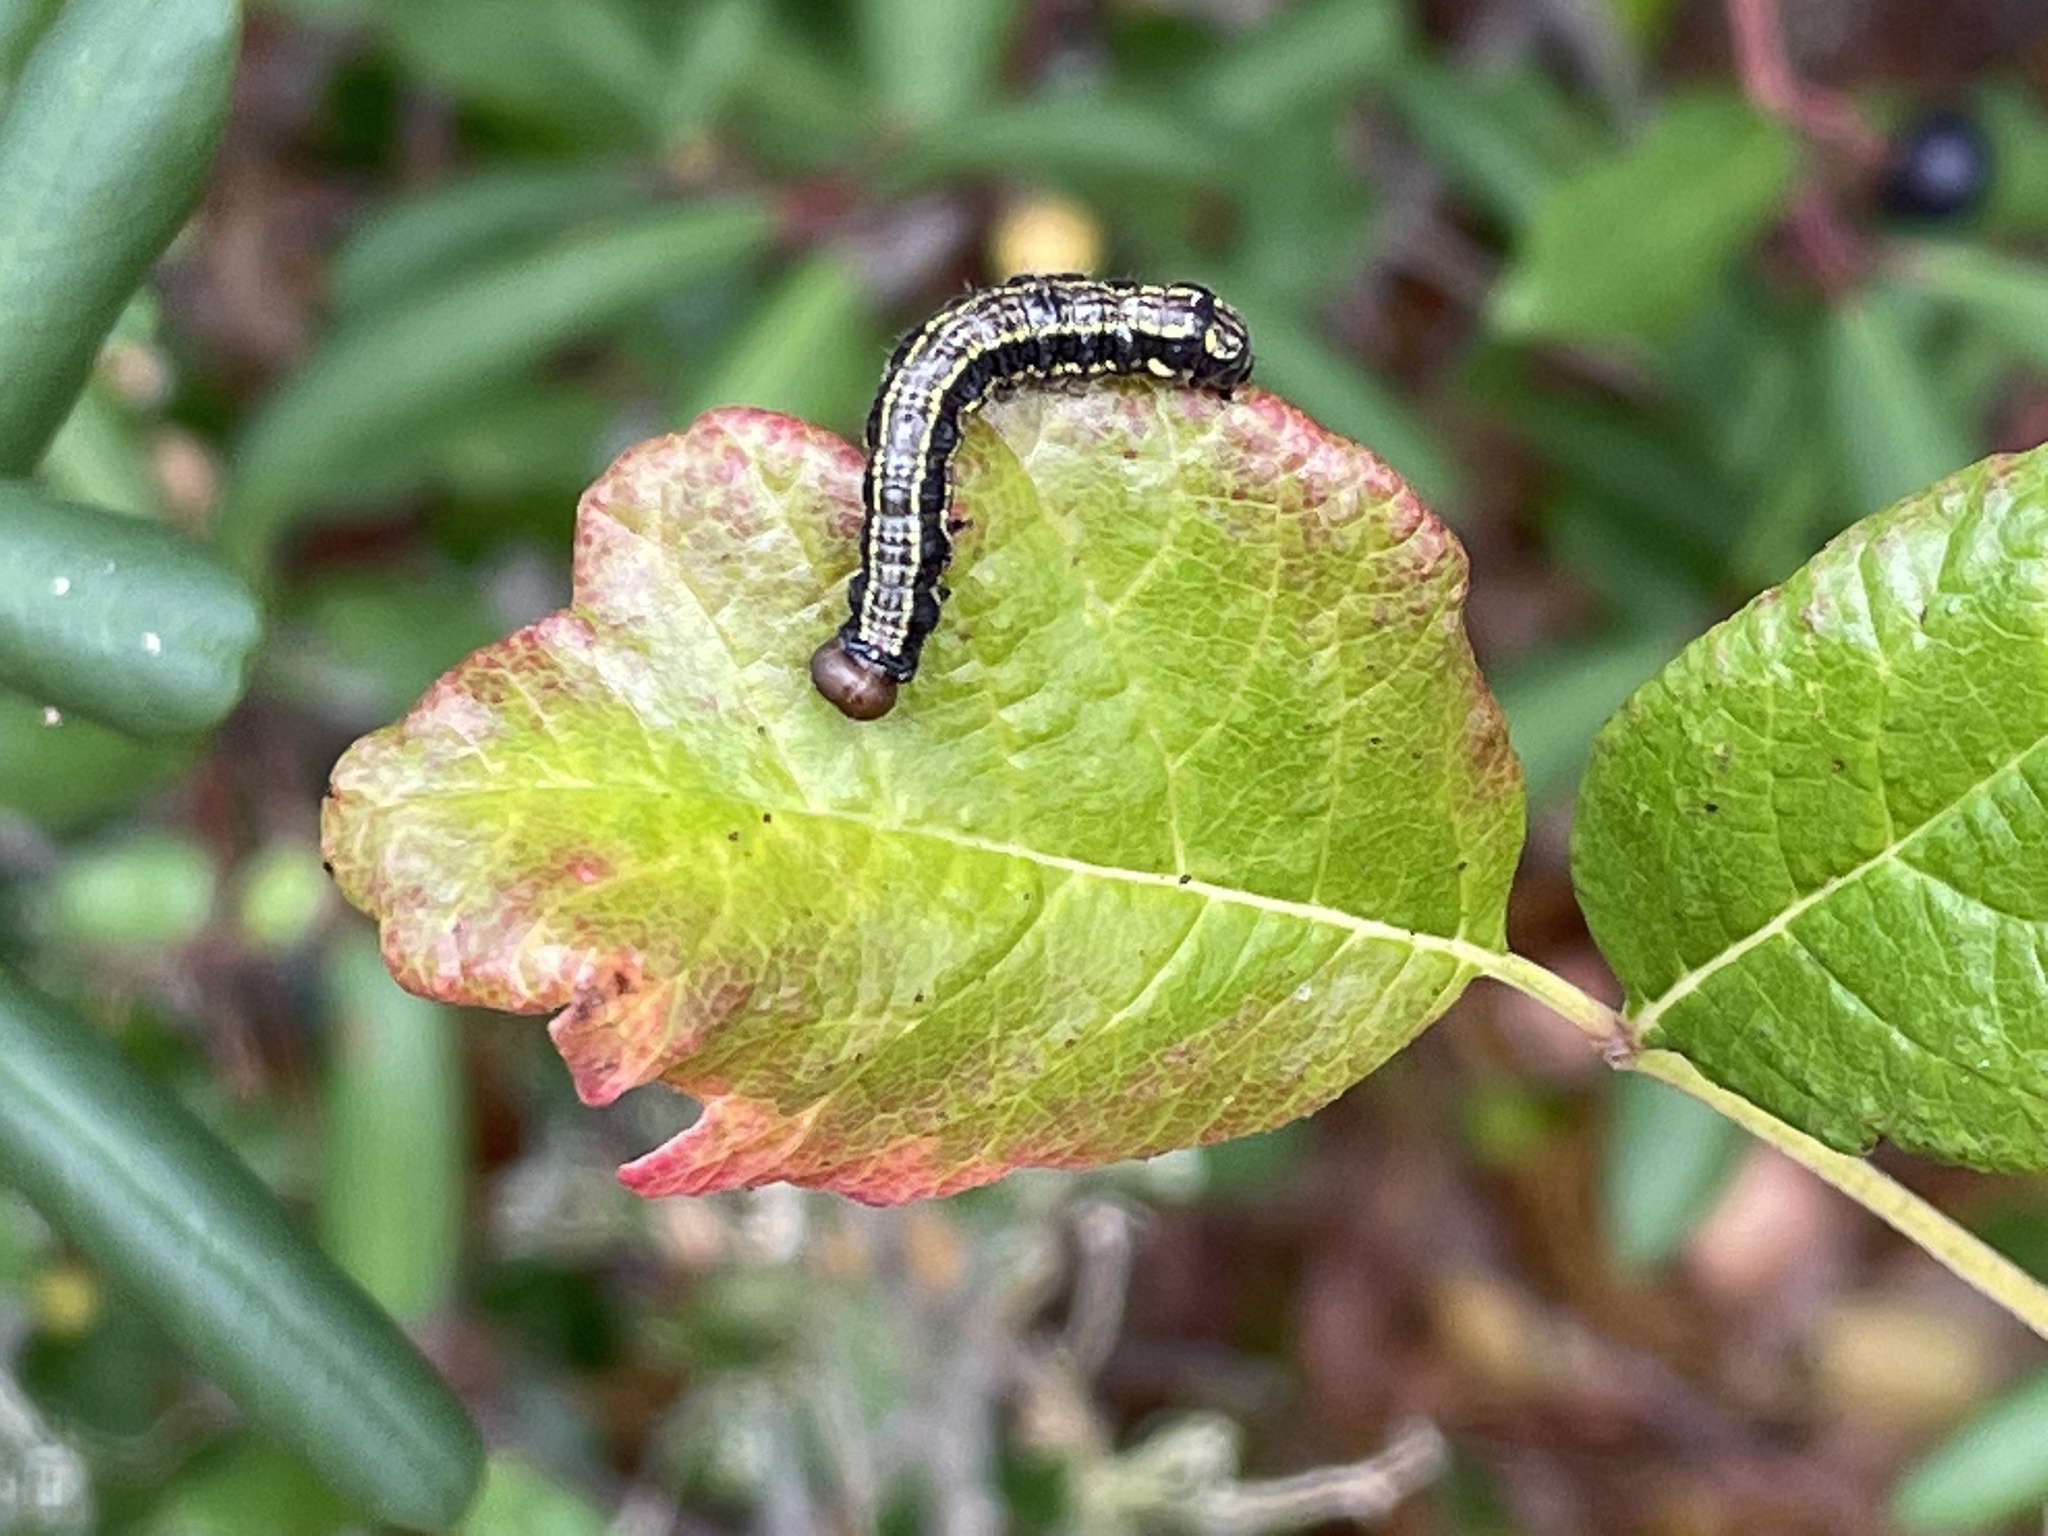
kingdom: Animalia
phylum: Arthropoda
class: Insecta
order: Lepidoptera
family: Notodontidae
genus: Phryganidia
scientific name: Phryganidia californica
